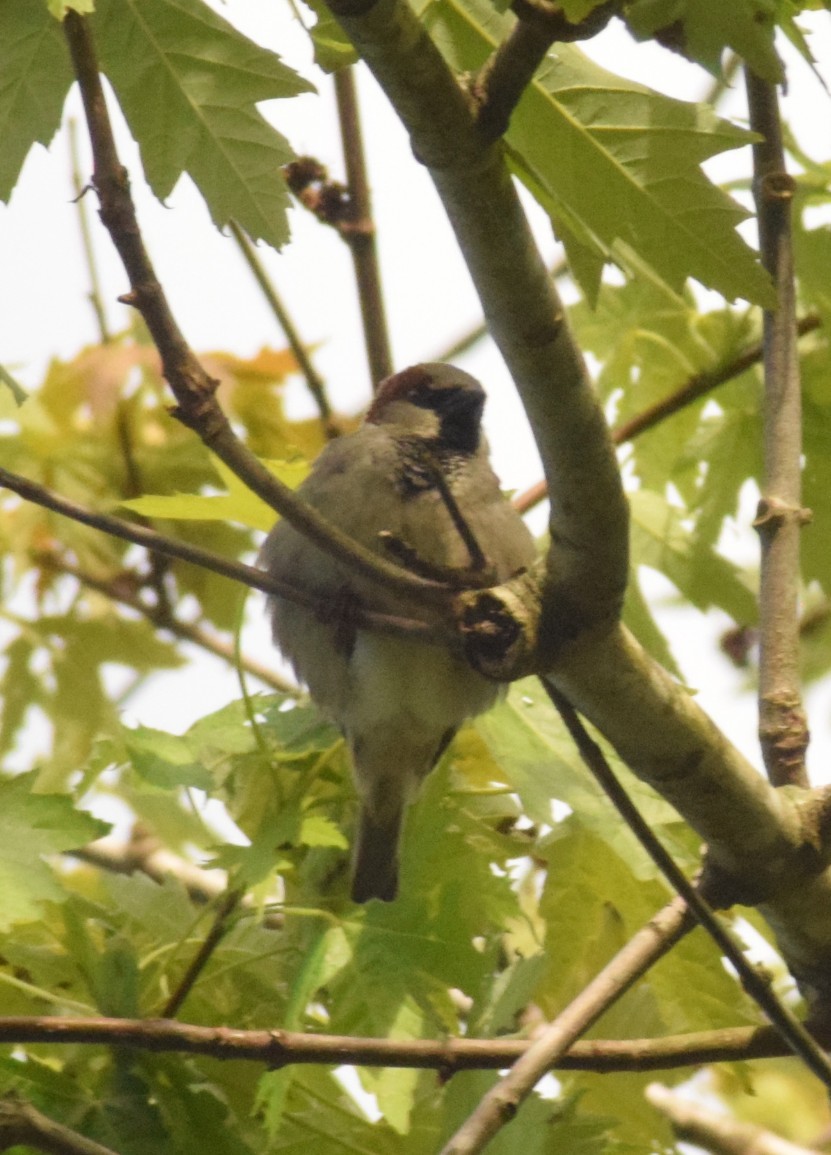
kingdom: Animalia
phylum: Chordata
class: Aves
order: Passeriformes
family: Passeridae
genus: Passer
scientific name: Passer domesticus
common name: House sparrow
